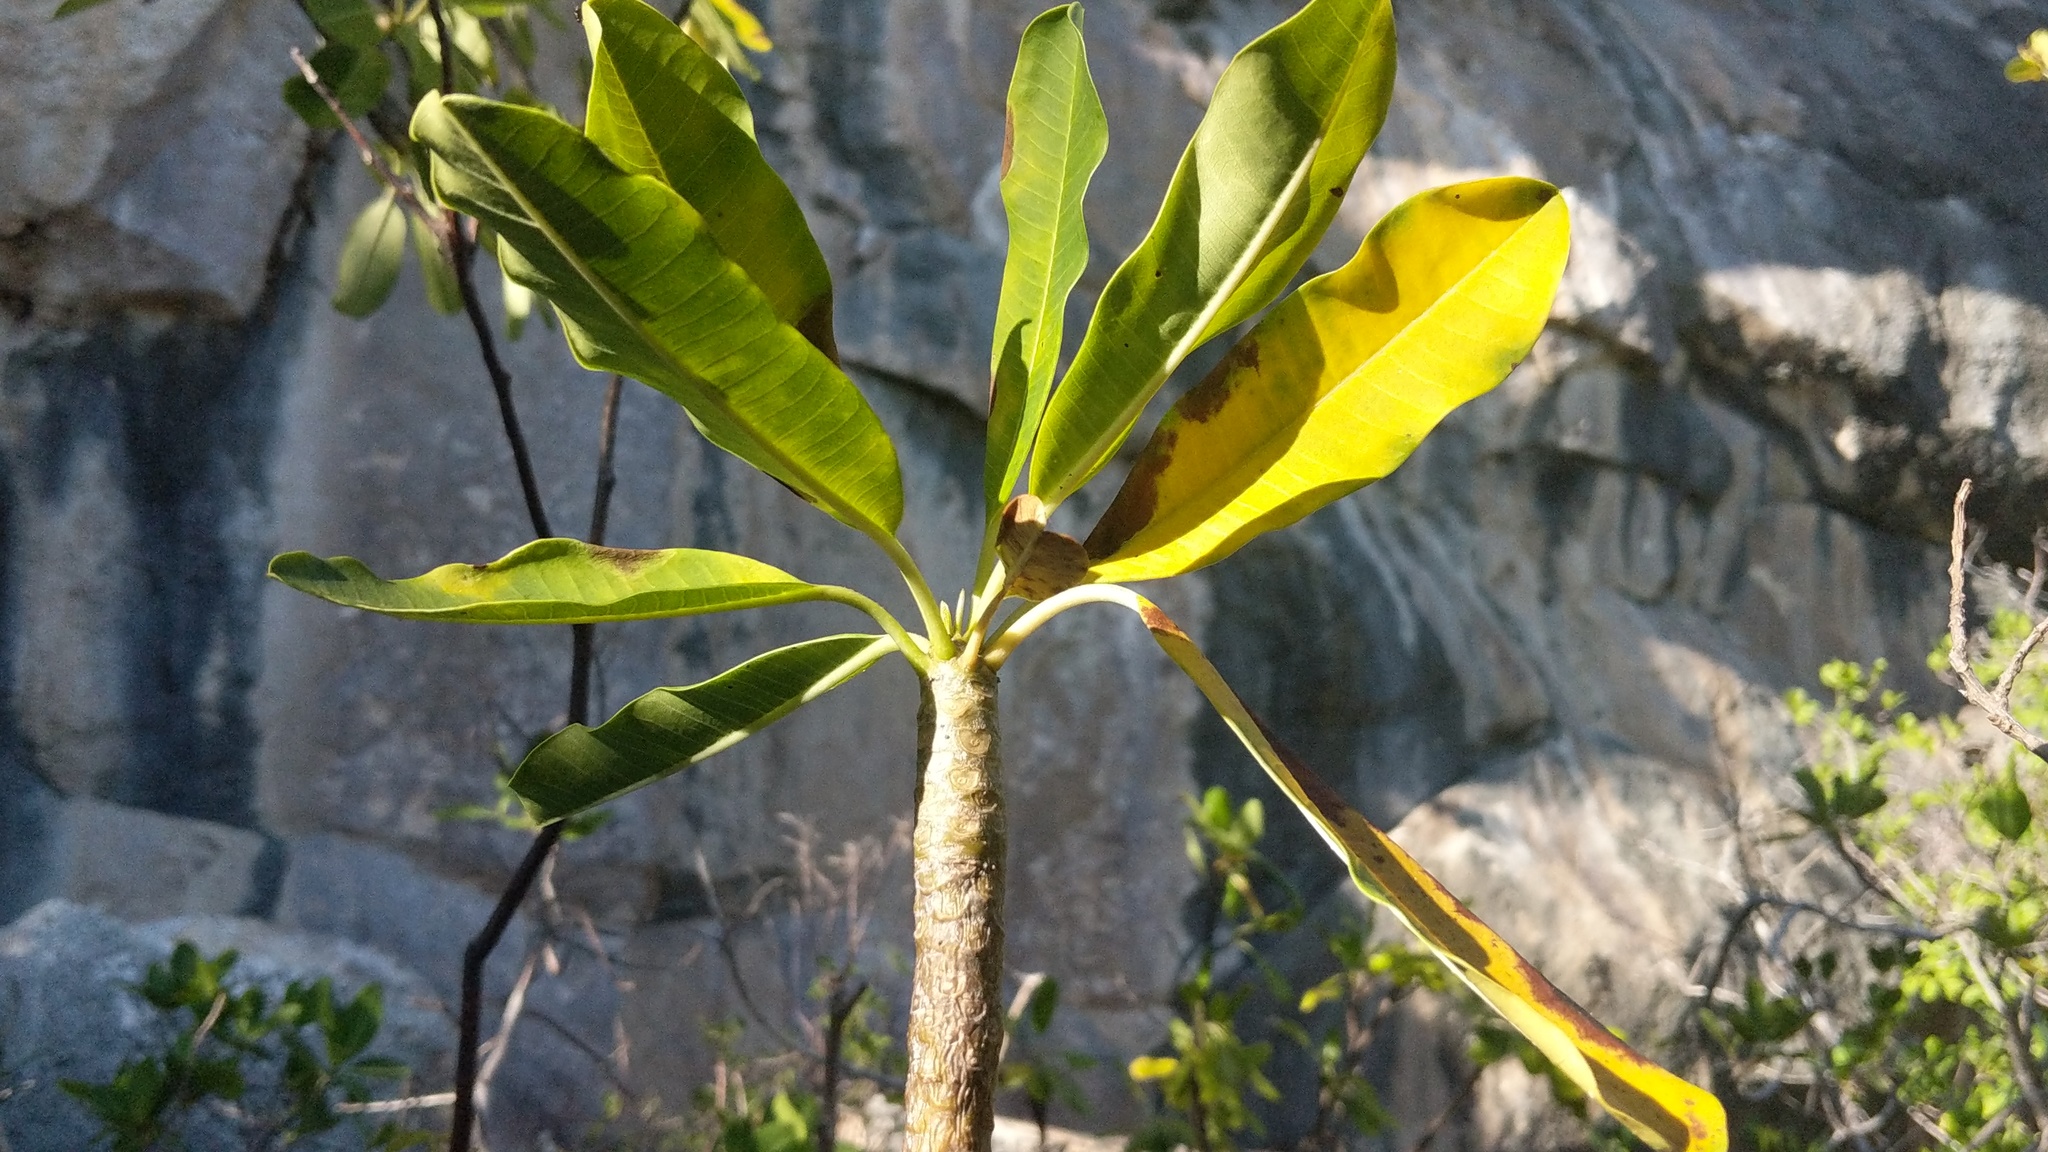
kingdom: Plantae
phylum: Tracheophyta
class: Magnoliopsida
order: Gentianales
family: Apocynaceae
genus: Plumeria
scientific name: Plumeria obtusa
